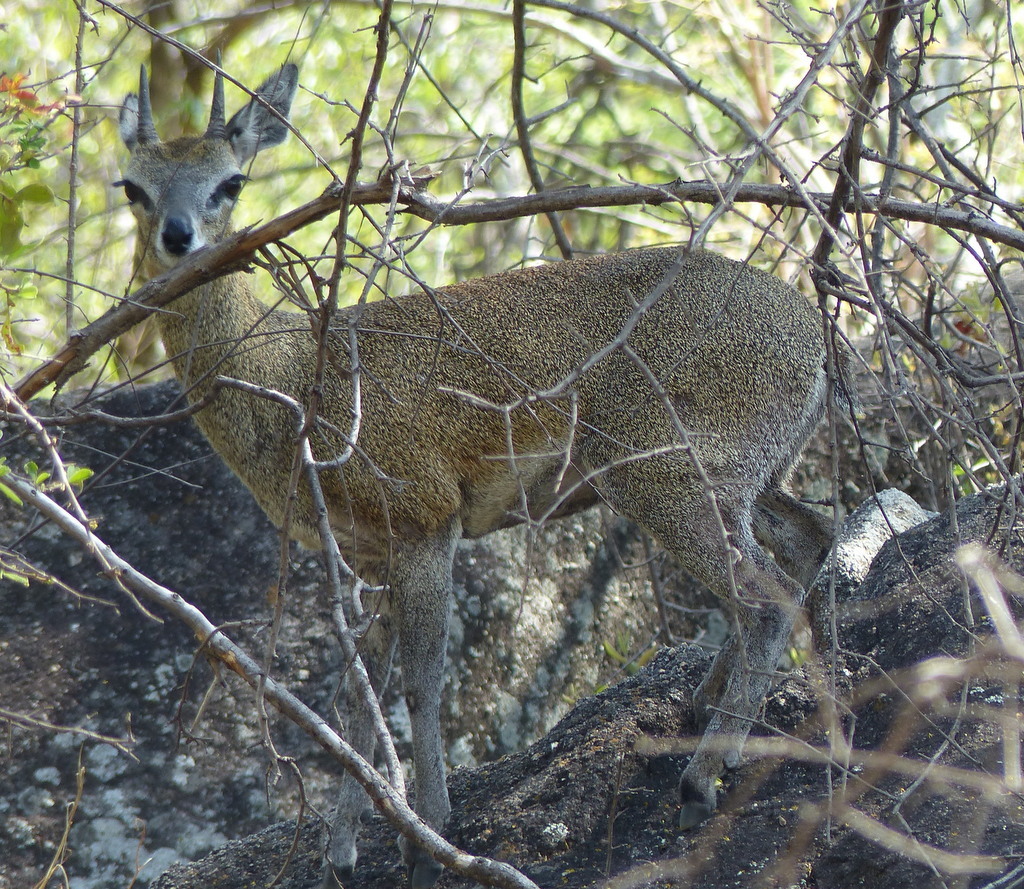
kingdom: Animalia
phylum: Chordata
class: Mammalia
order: Artiodactyla
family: Bovidae
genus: Oreotragus
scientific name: Oreotragus oreotragus
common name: Klipspringer
